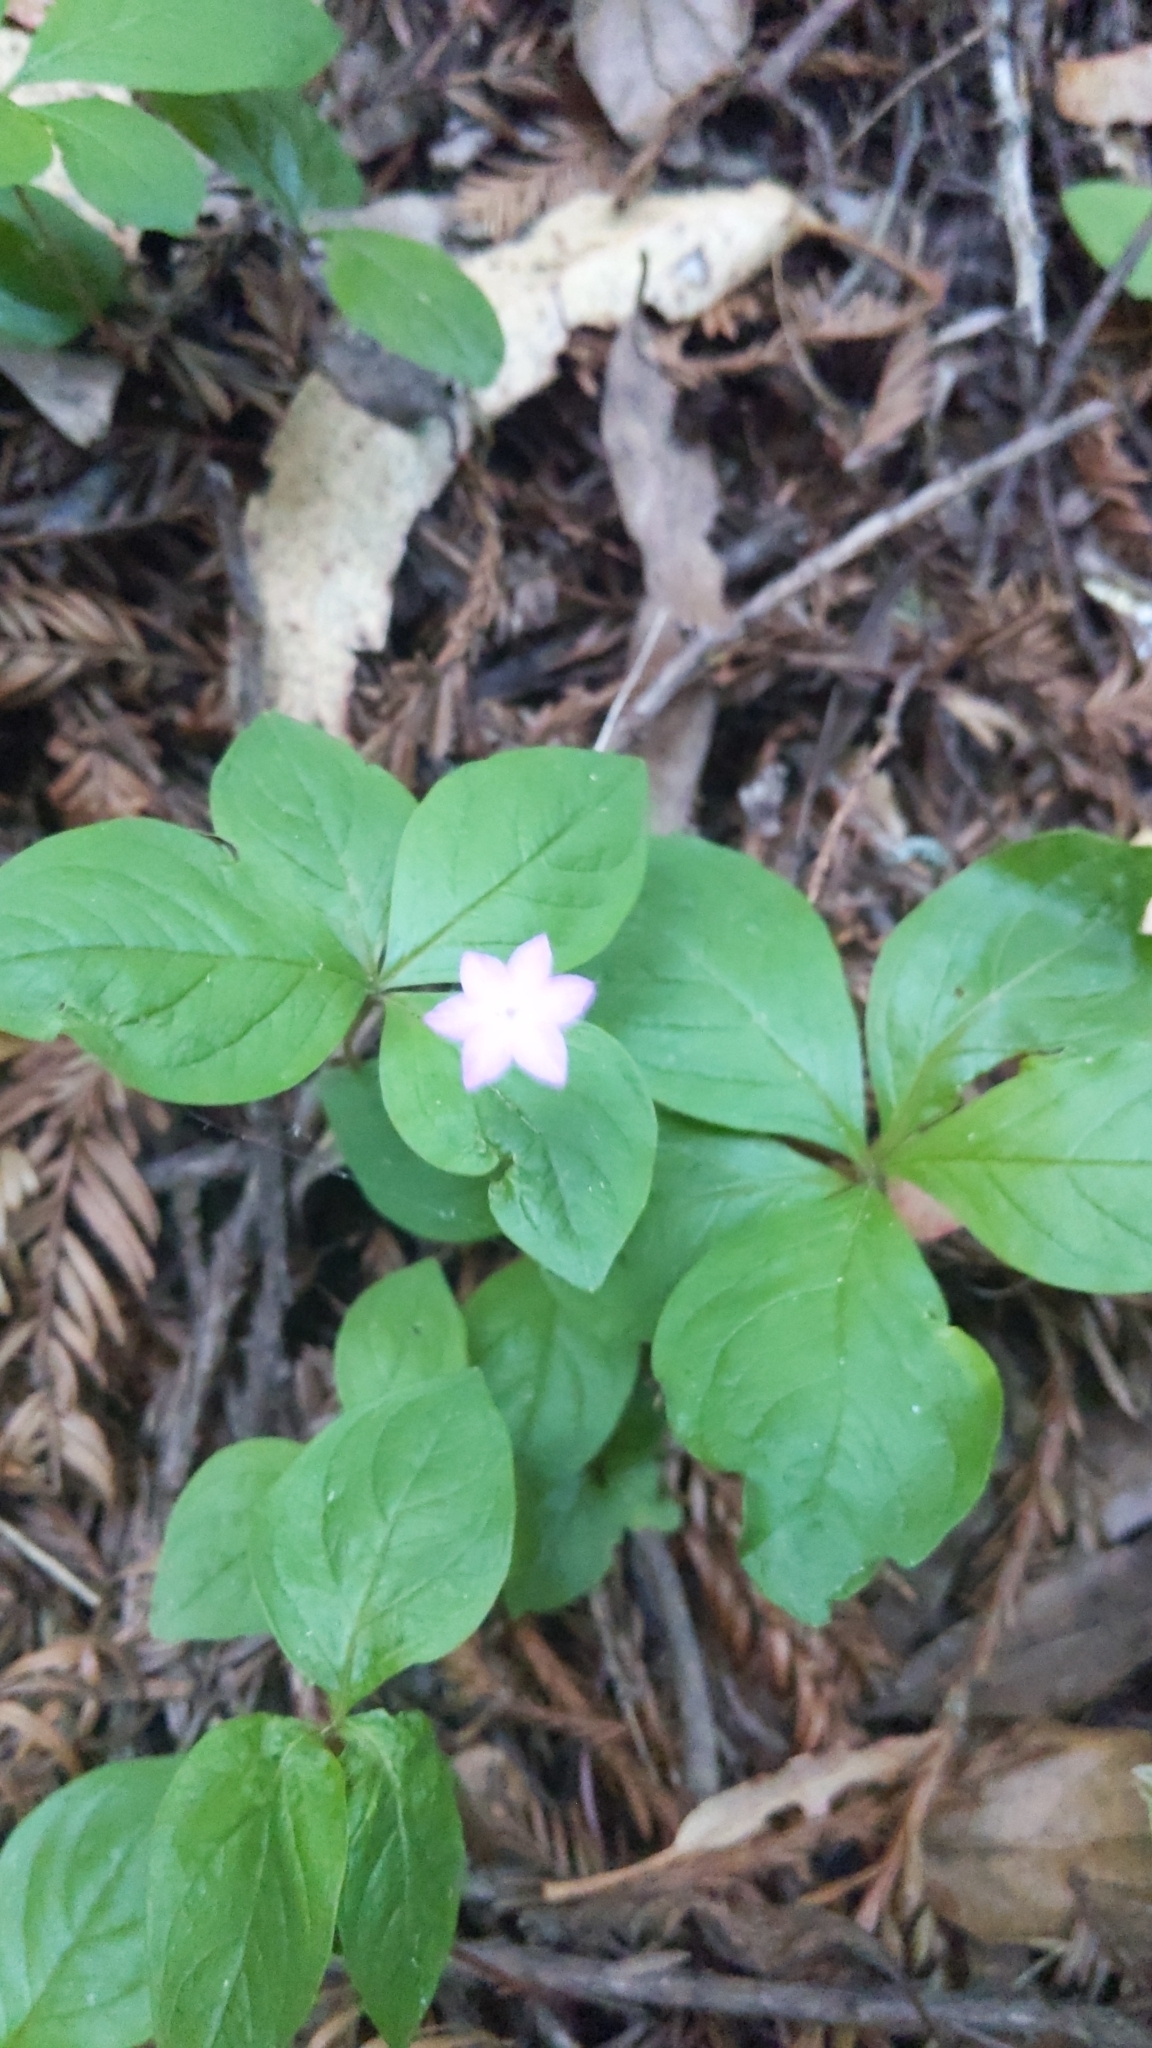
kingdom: Plantae
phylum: Tracheophyta
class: Magnoliopsida
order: Ericales
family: Primulaceae
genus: Lysimachia
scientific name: Lysimachia latifolia
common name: Pacific starflower
